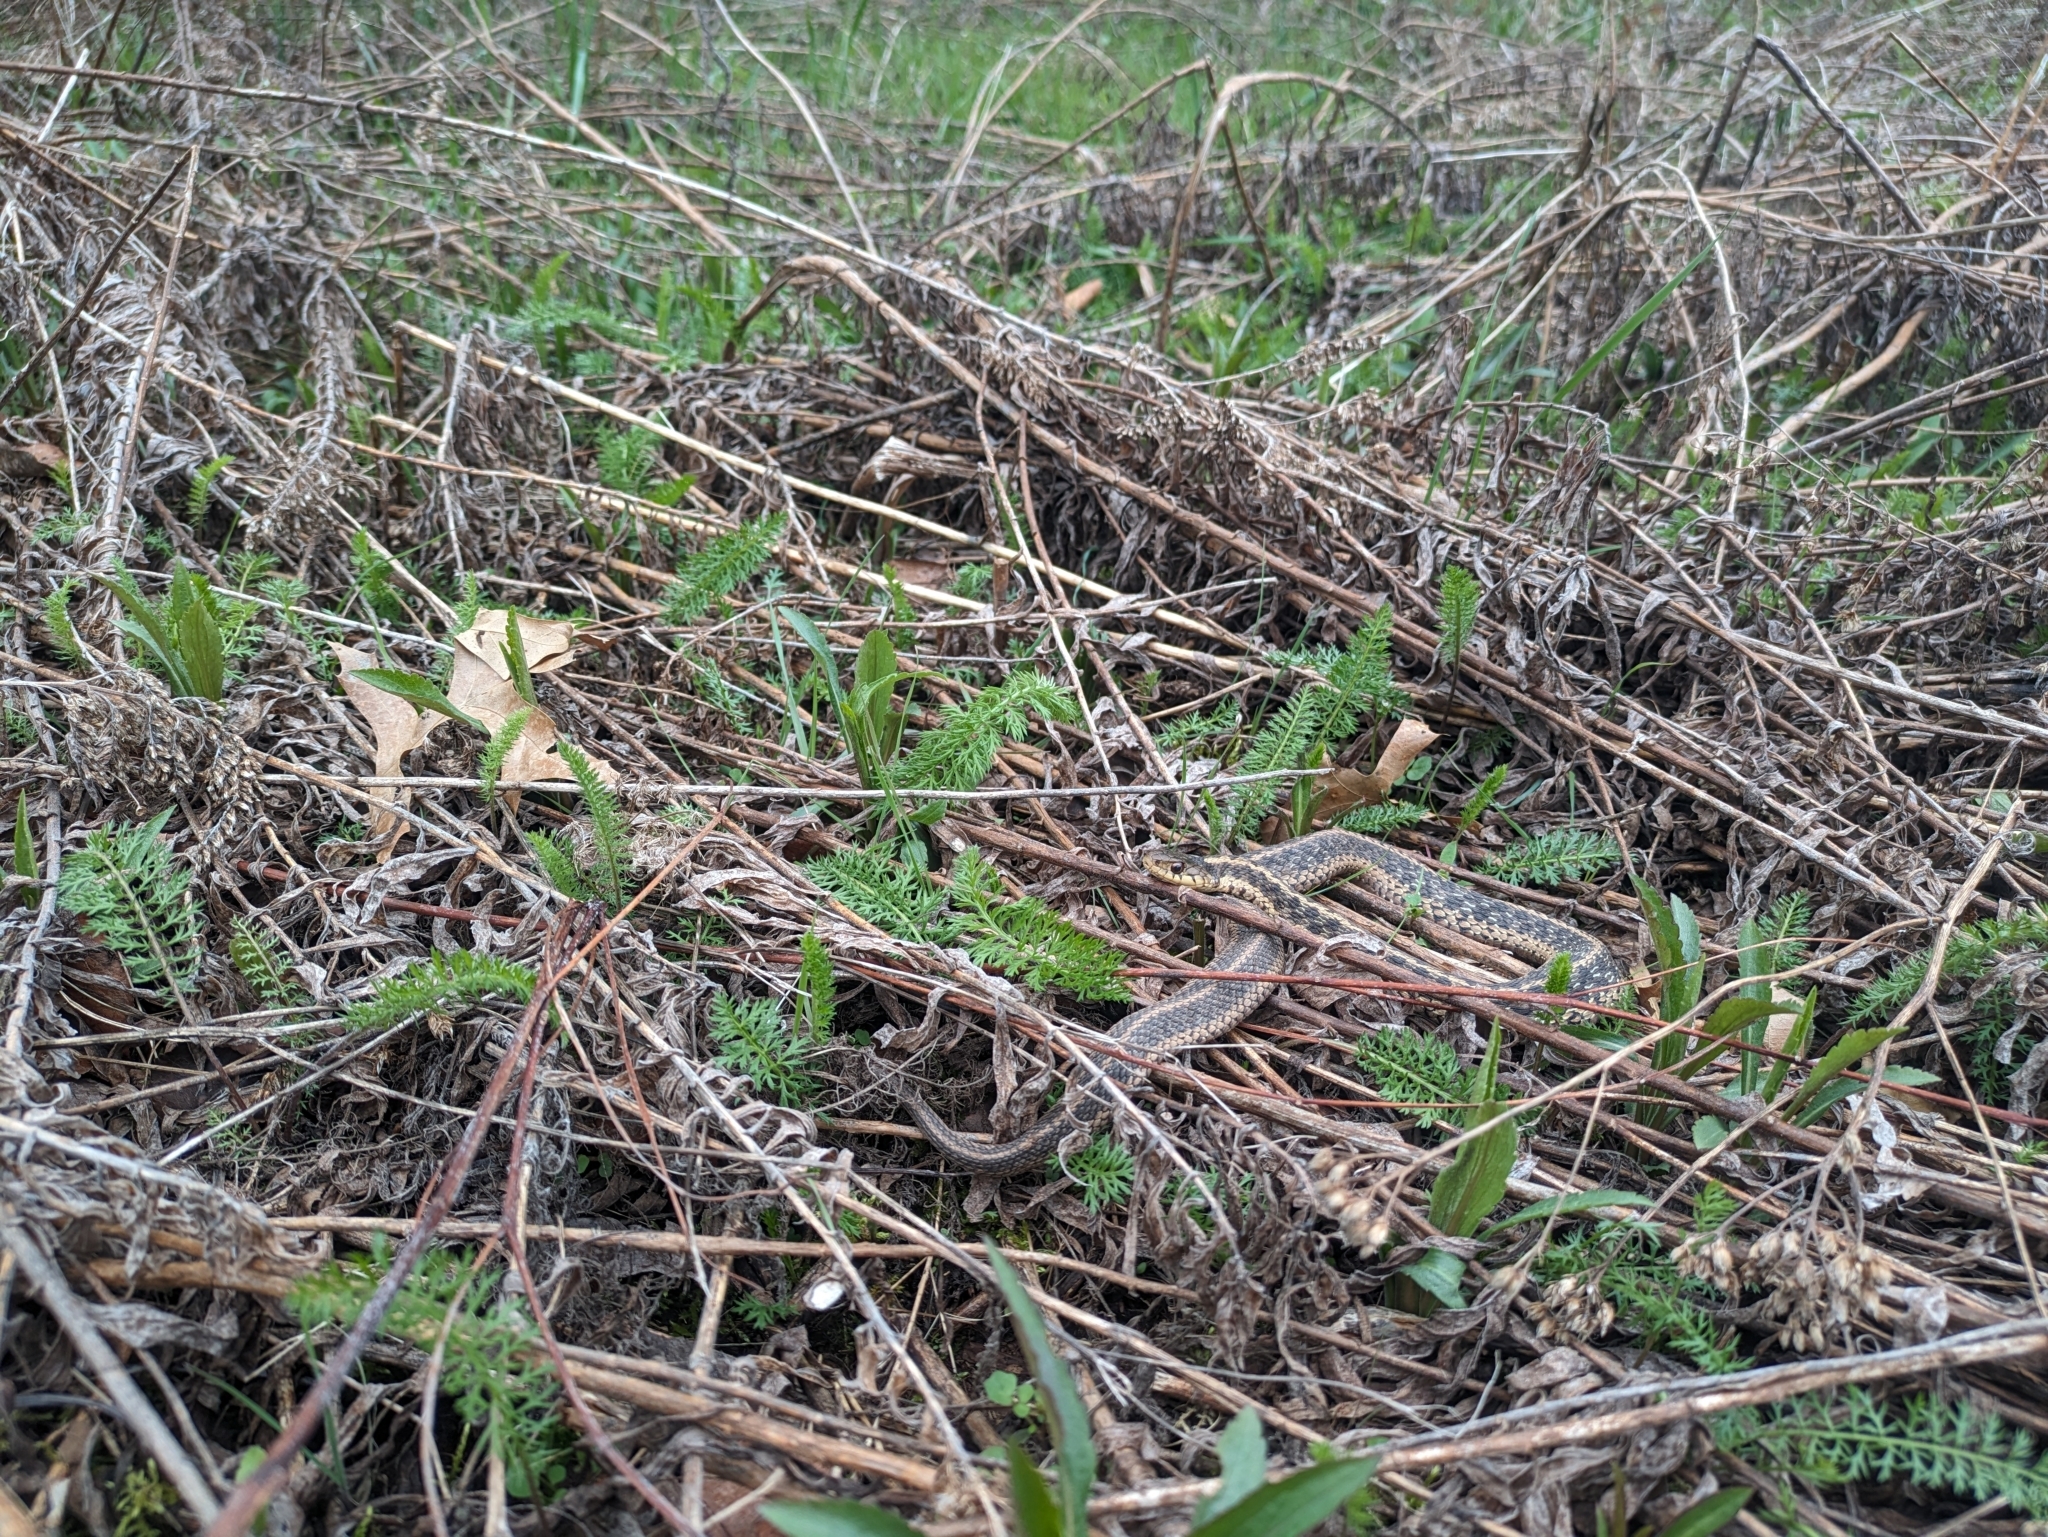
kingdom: Animalia
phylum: Chordata
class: Squamata
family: Colubridae
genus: Thamnophis
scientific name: Thamnophis sirtalis
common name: Common garter snake
